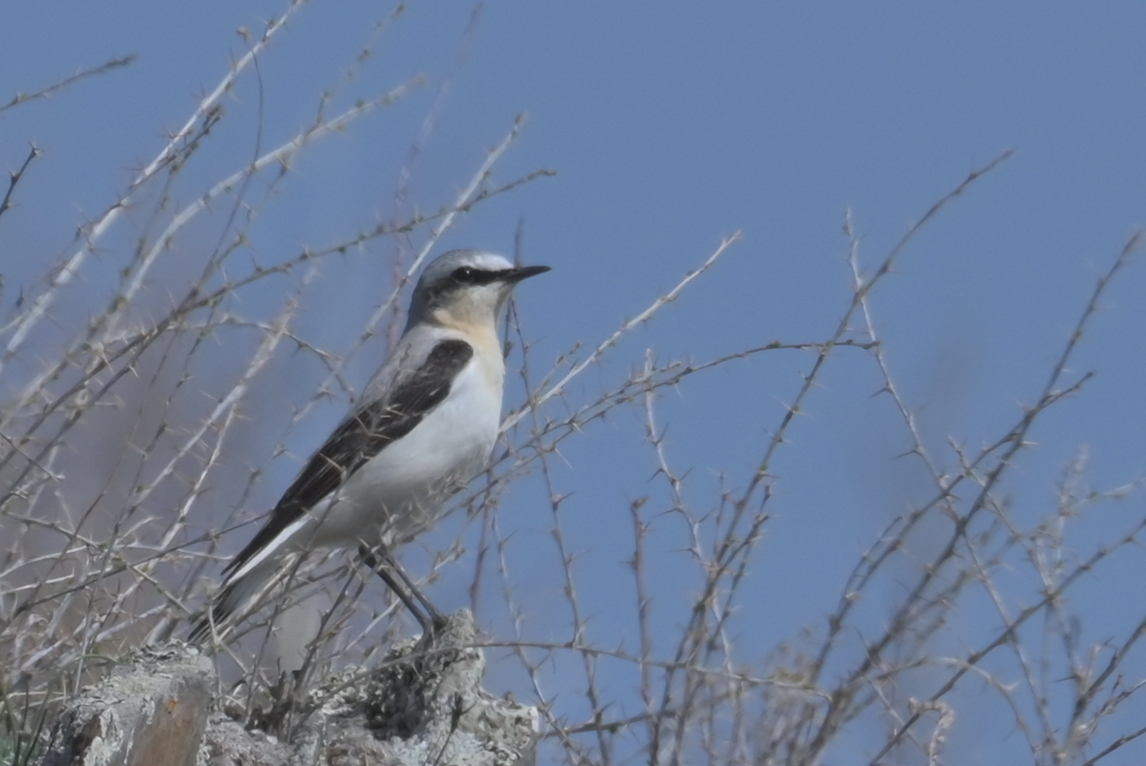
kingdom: Animalia
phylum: Chordata
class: Aves
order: Passeriformes
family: Muscicapidae
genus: Oenanthe
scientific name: Oenanthe oenanthe
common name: Northern wheatear
